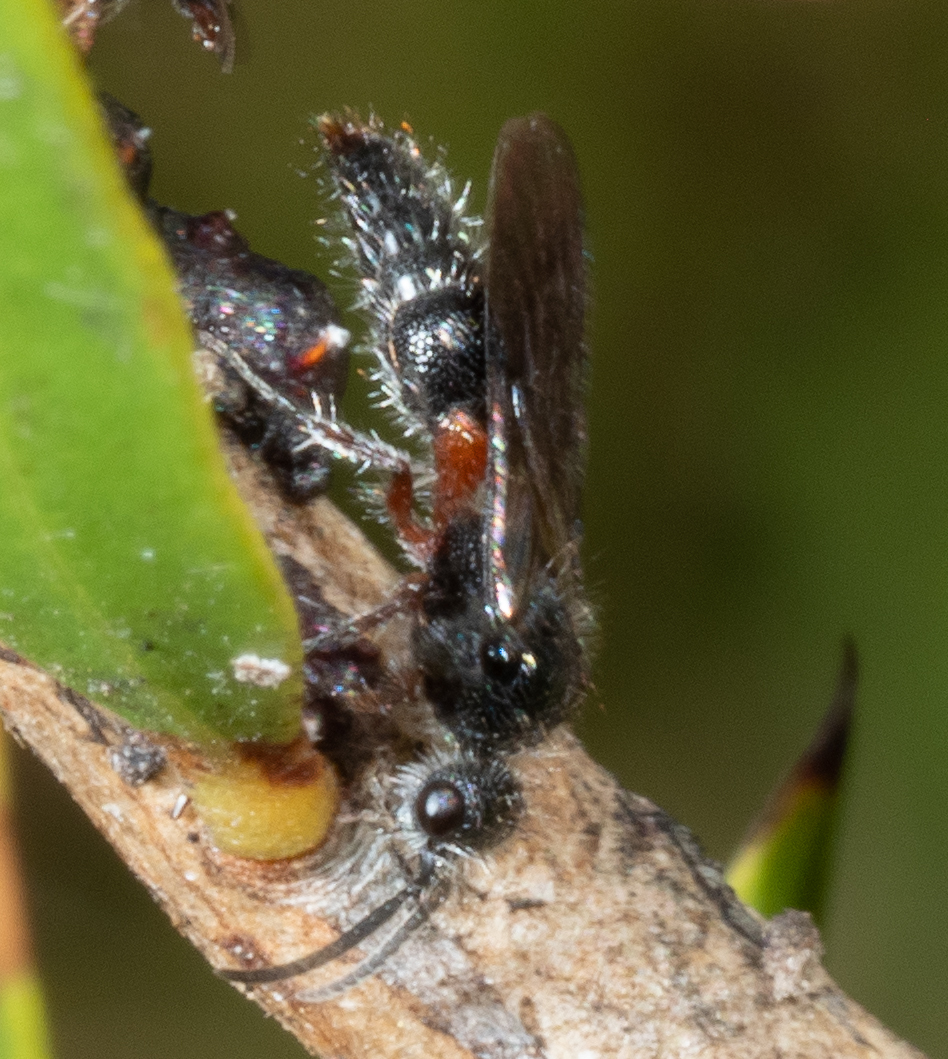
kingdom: Animalia
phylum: Arthropoda
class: Insecta
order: Hymenoptera
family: Mutillidae
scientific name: Mutillidae
